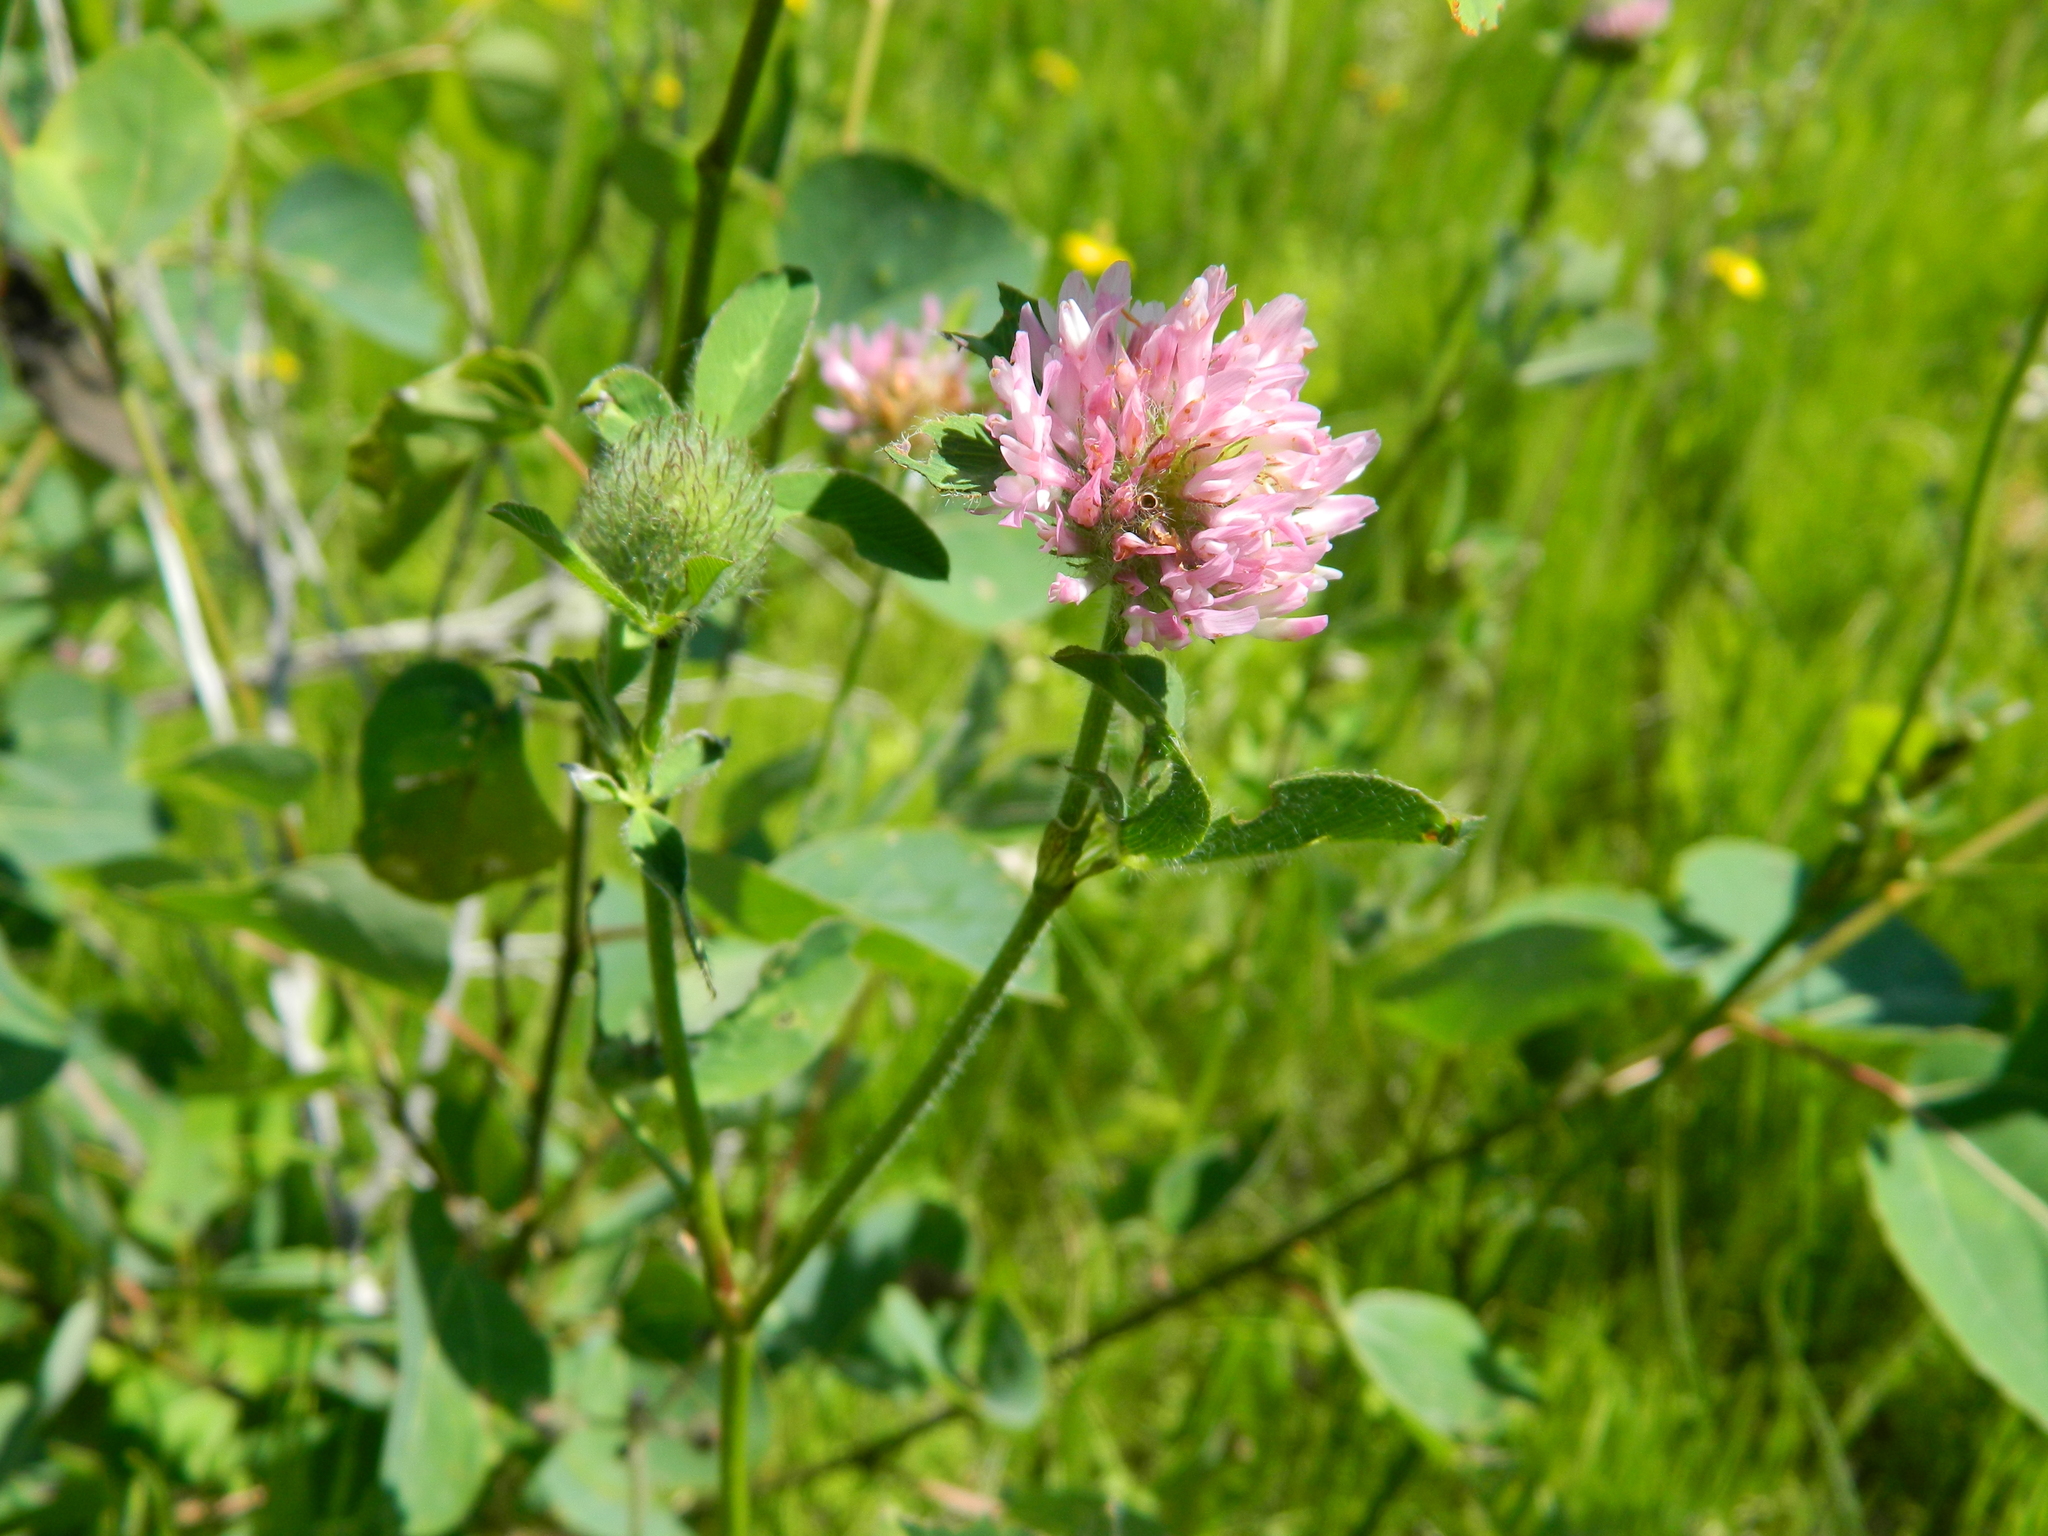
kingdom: Plantae
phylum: Tracheophyta
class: Magnoliopsida
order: Fabales
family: Fabaceae
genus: Trifolium
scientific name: Trifolium pratense
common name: Red clover
